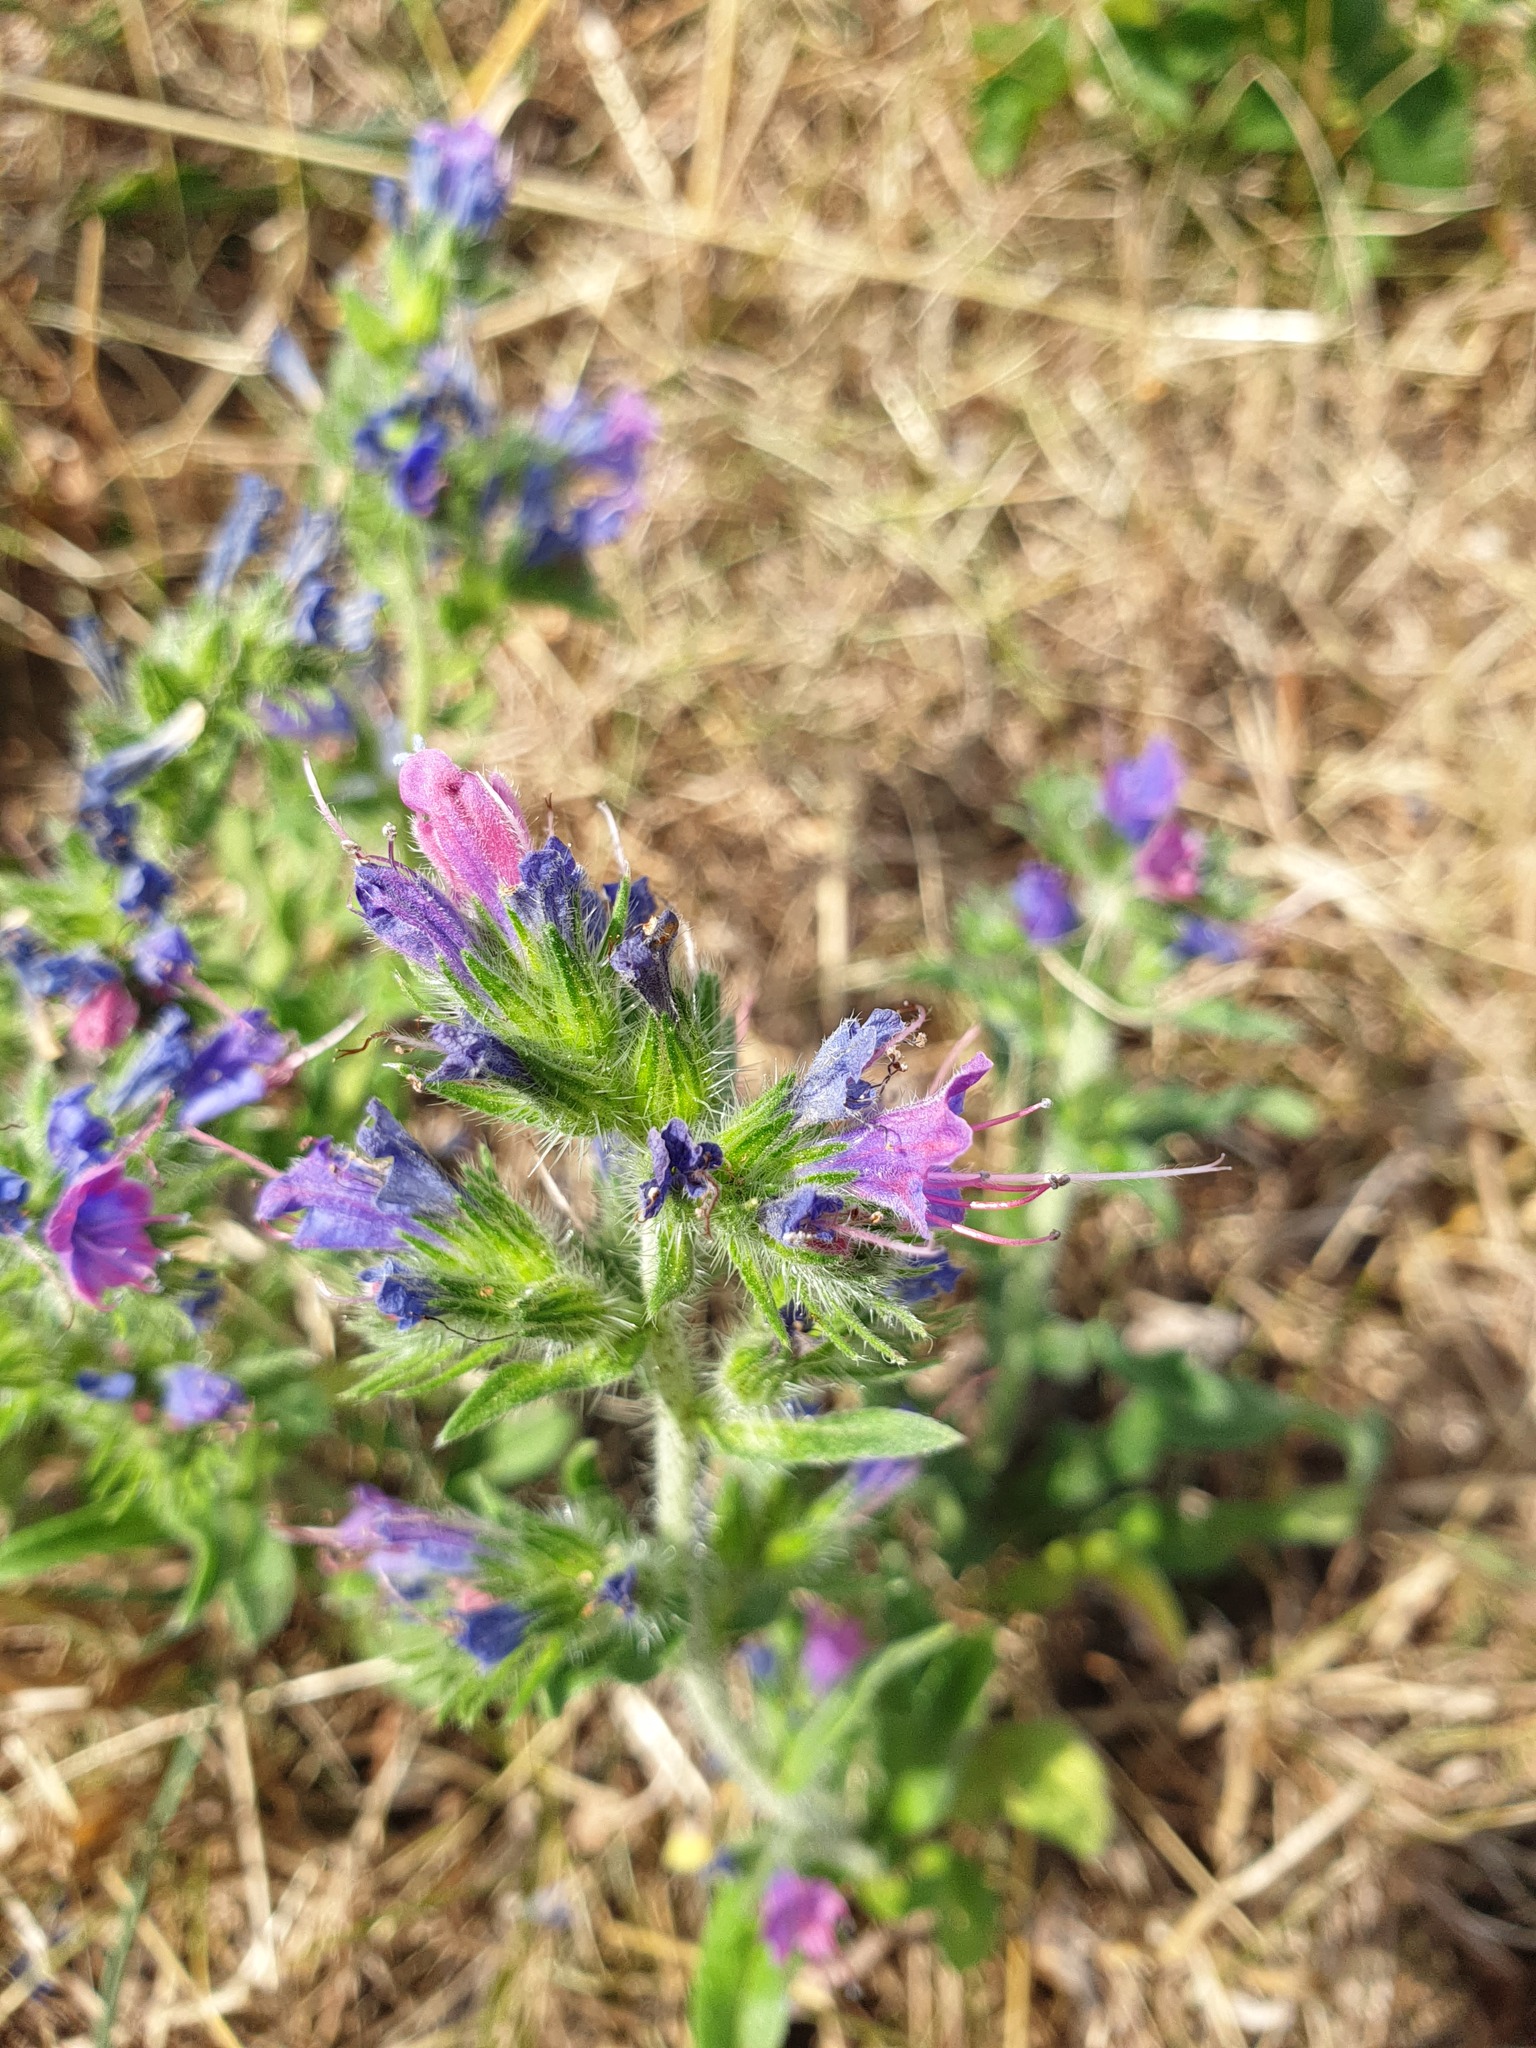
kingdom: Plantae
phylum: Tracheophyta
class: Magnoliopsida
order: Boraginales
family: Boraginaceae
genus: Echium
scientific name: Echium vulgare
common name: Common viper's bugloss
